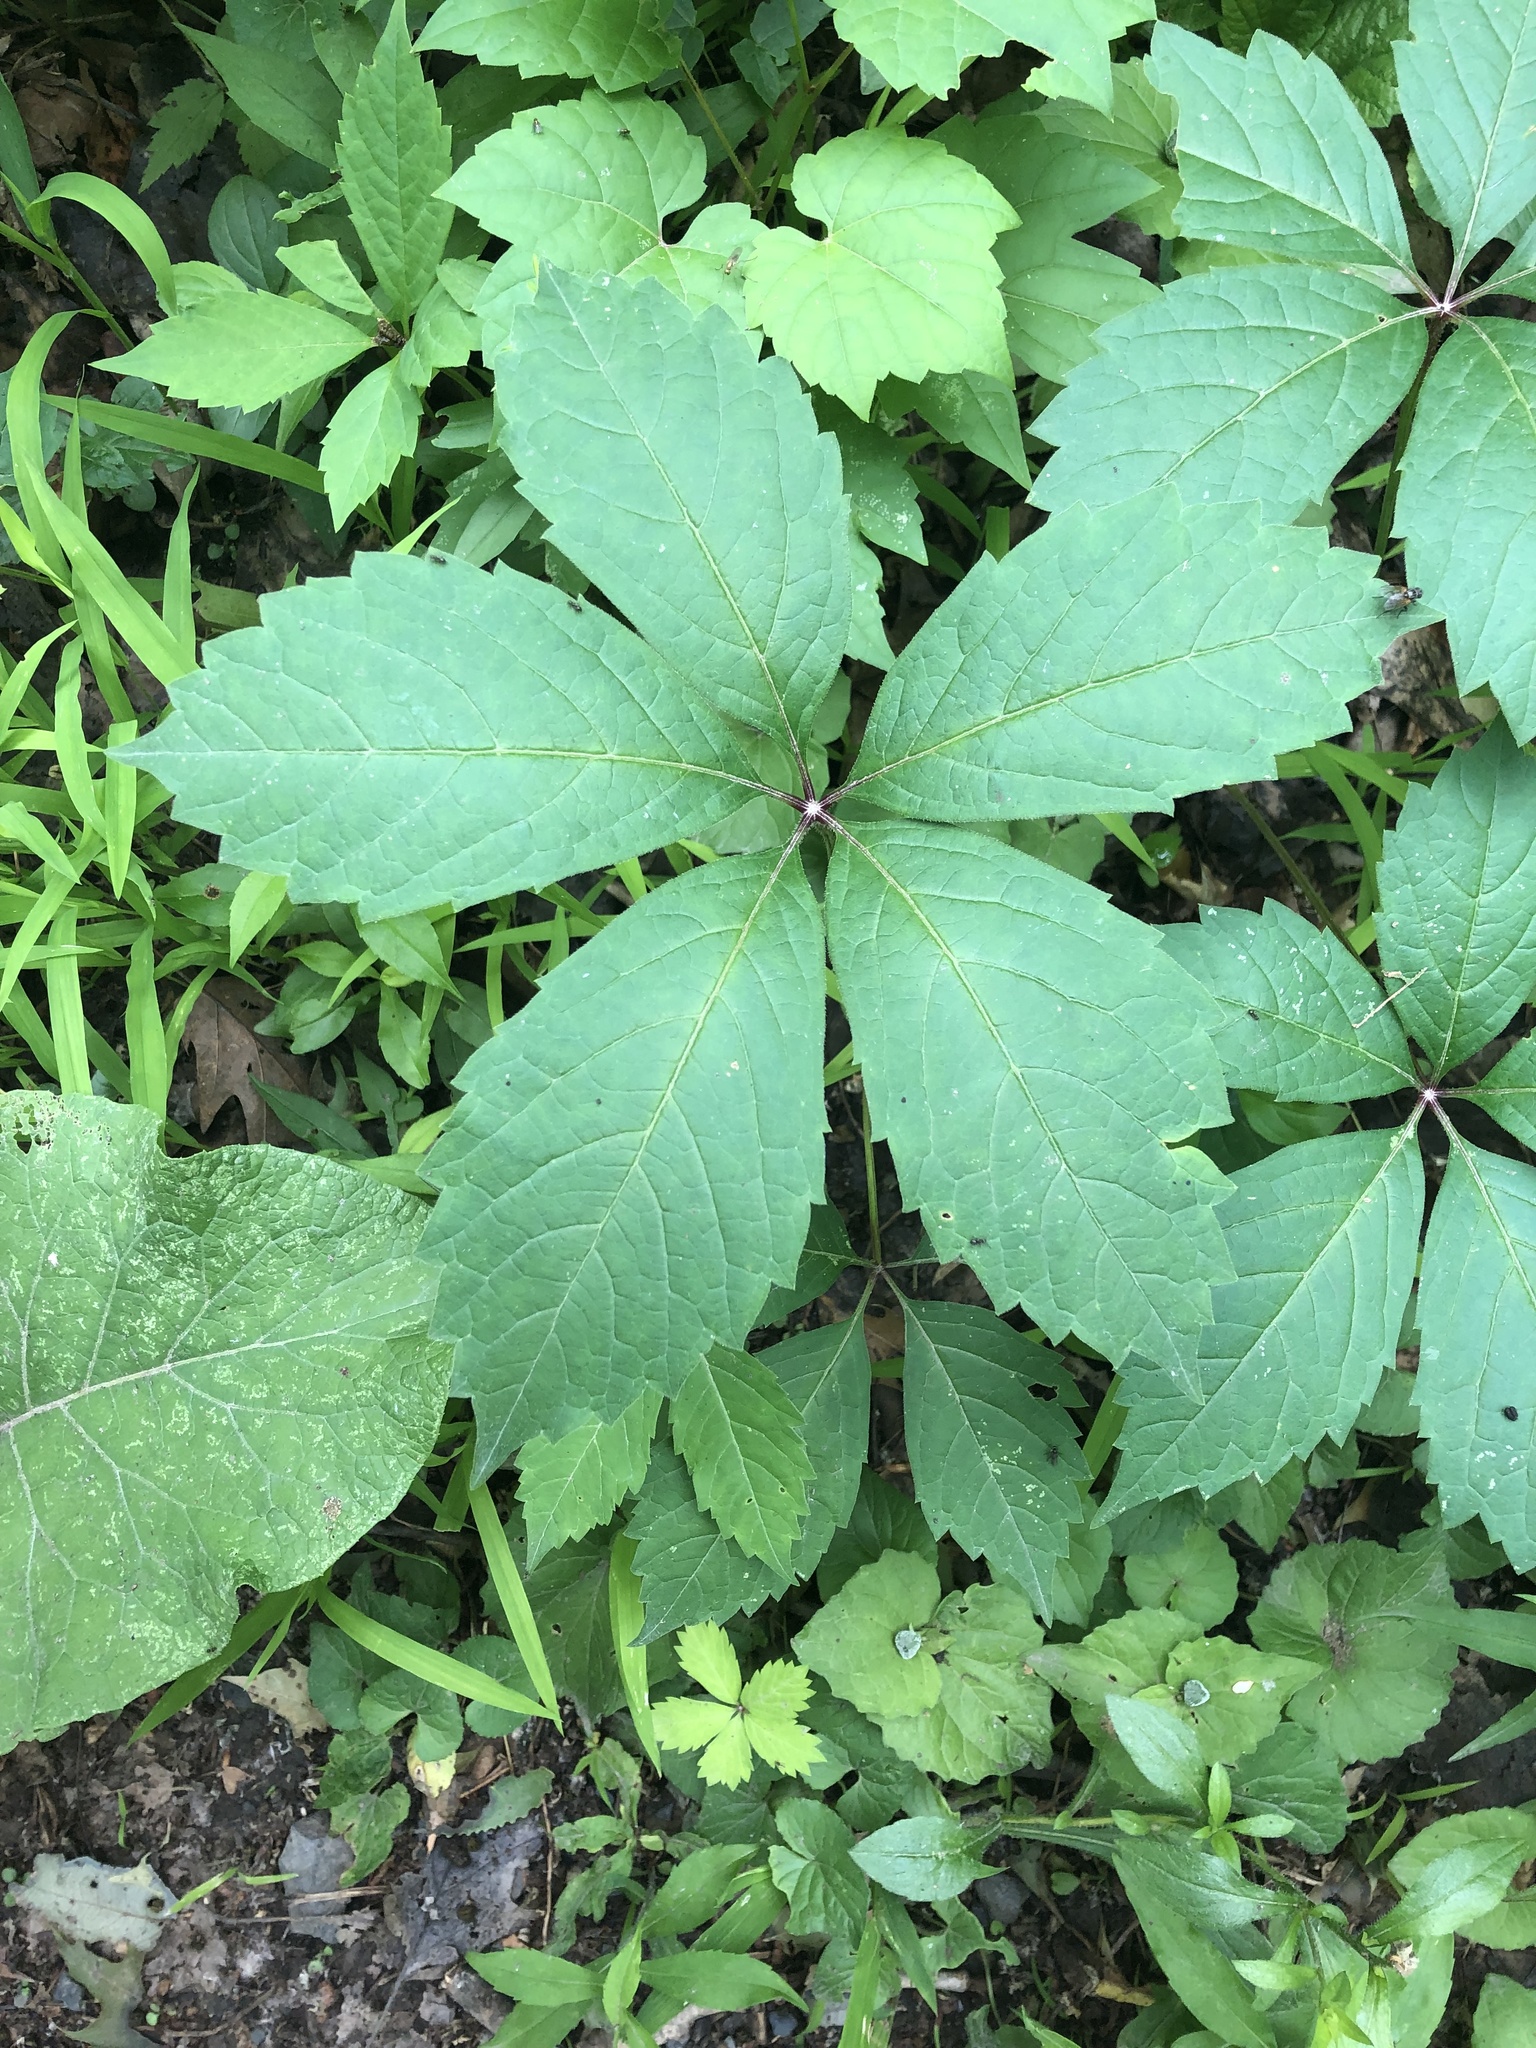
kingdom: Plantae
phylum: Tracheophyta
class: Magnoliopsida
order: Vitales
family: Vitaceae
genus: Parthenocissus
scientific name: Parthenocissus inserta
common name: False virginia-creeper
